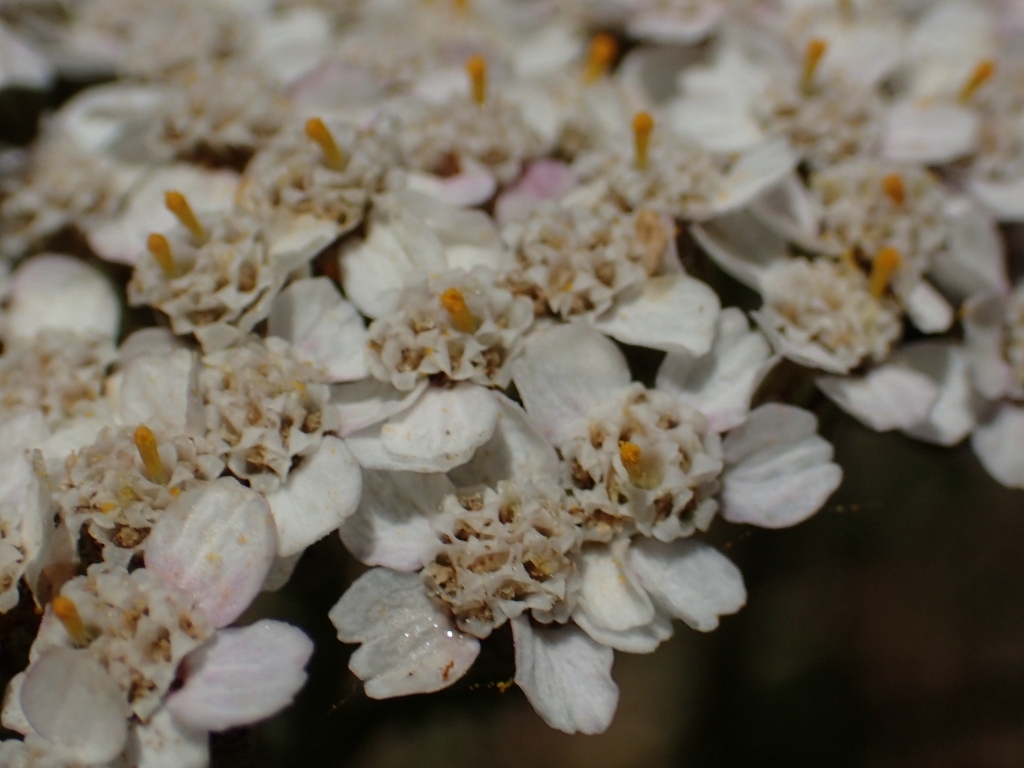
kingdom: Plantae
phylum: Tracheophyta
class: Magnoliopsida
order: Asterales
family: Asteraceae
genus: Achillea
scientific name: Achillea millefolium
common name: Yarrow
